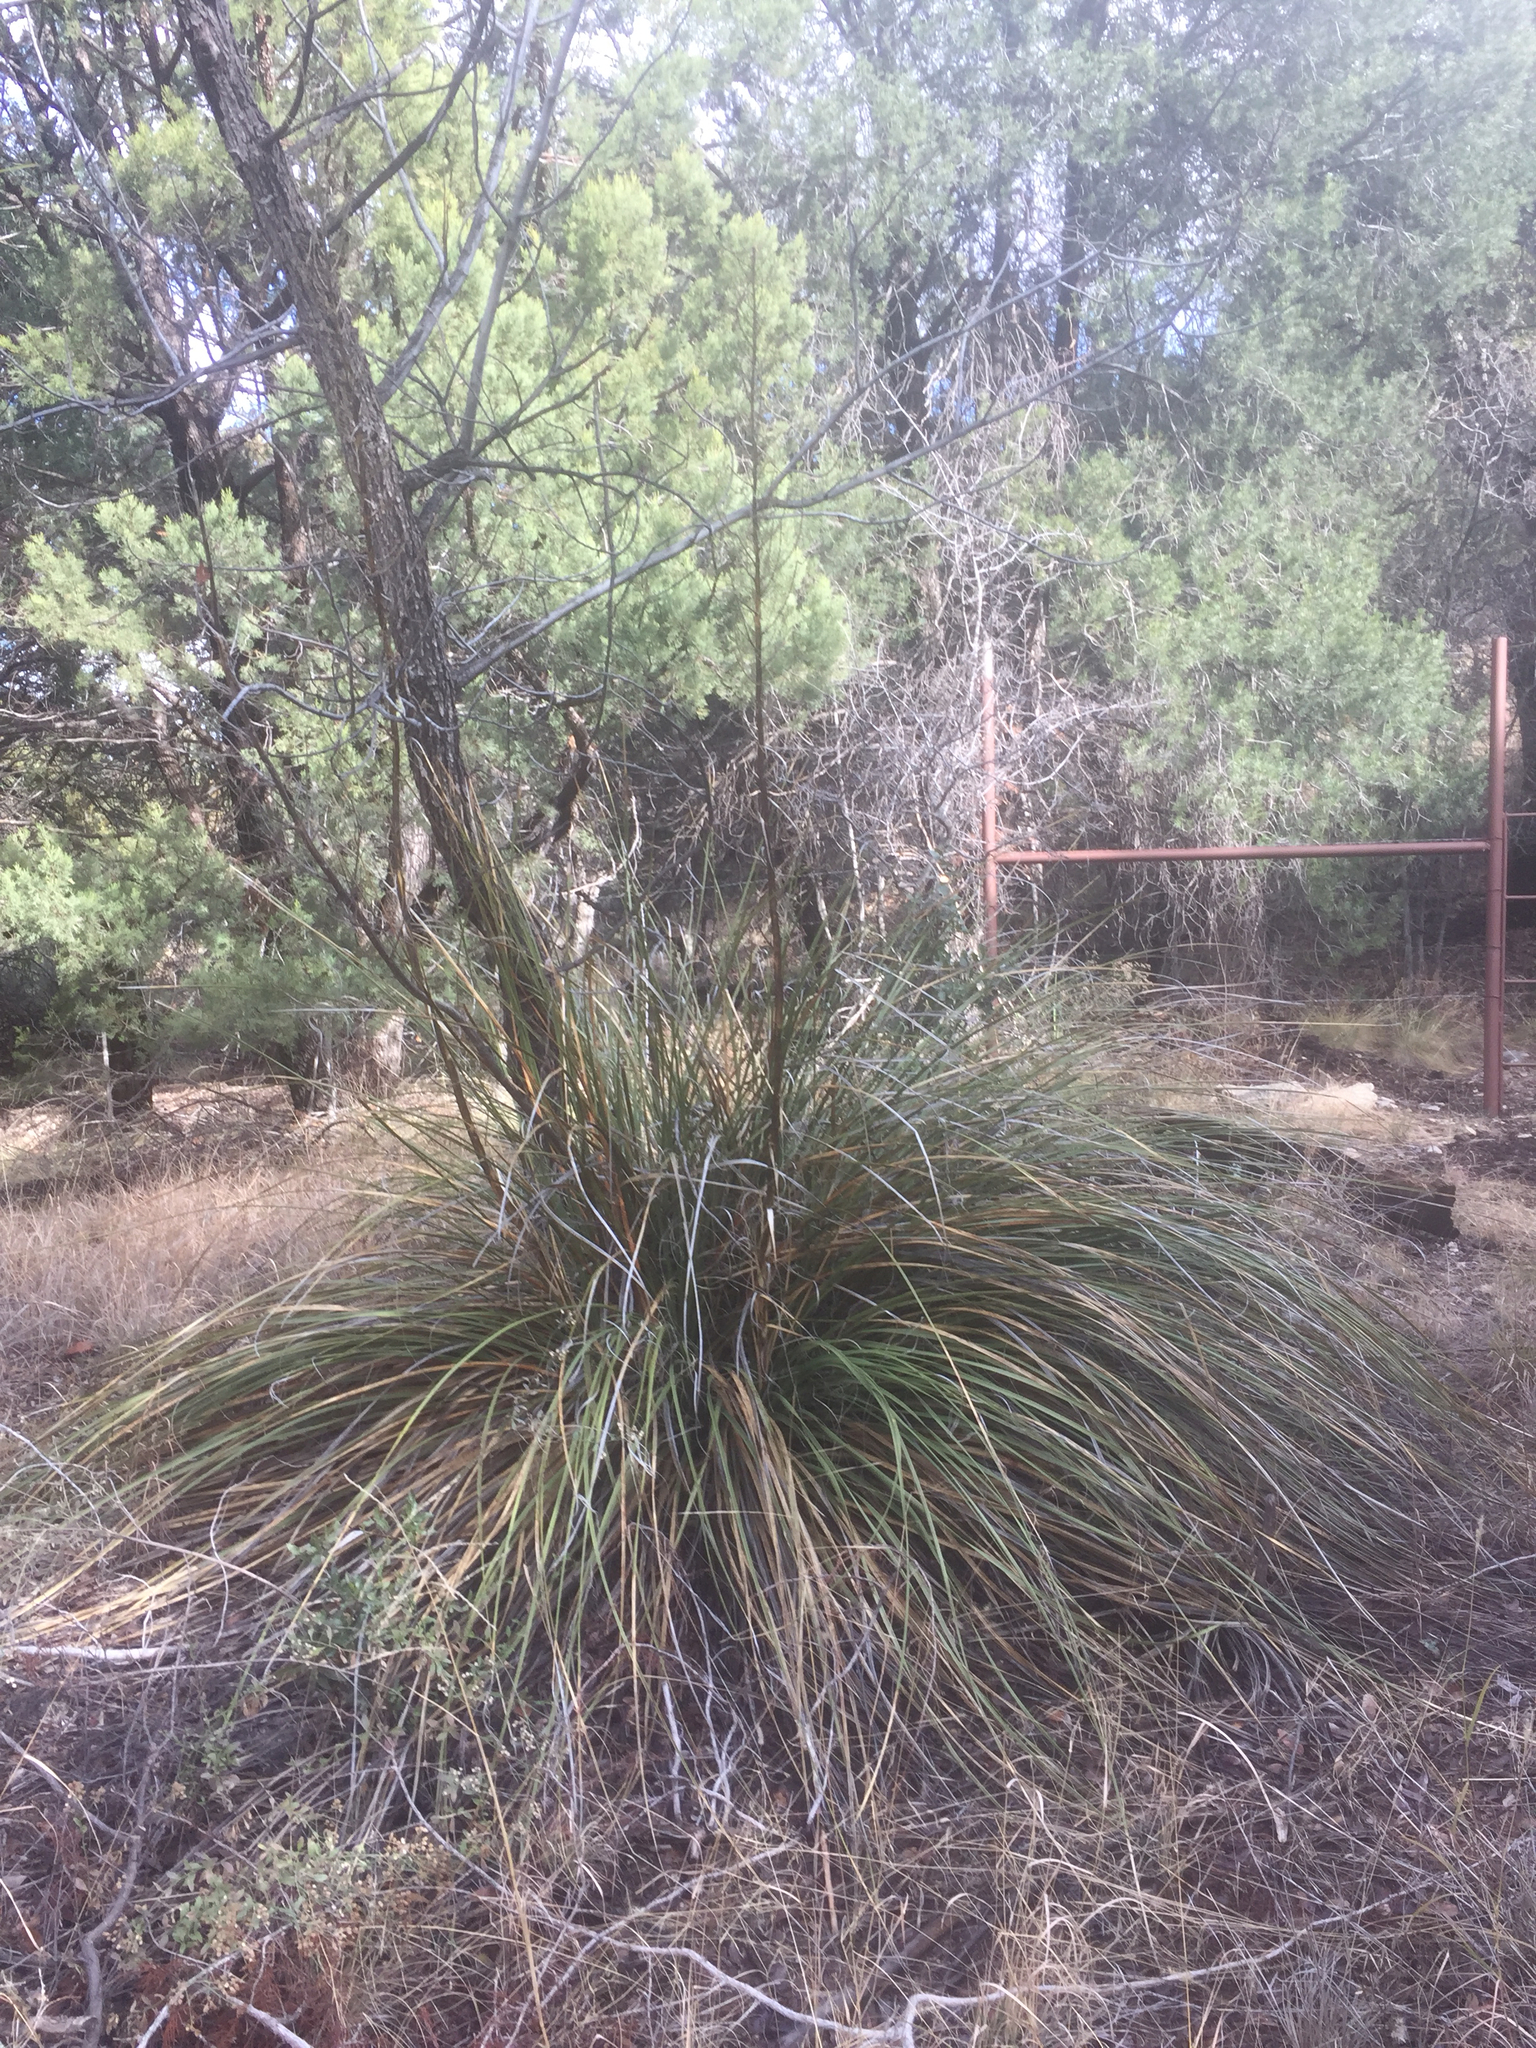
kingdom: Plantae
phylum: Tracheophyta
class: Liliopsida
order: Asparagales
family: Asparagaceae
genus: Nolina
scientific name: Nolina microcarpa
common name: Bear-grass
